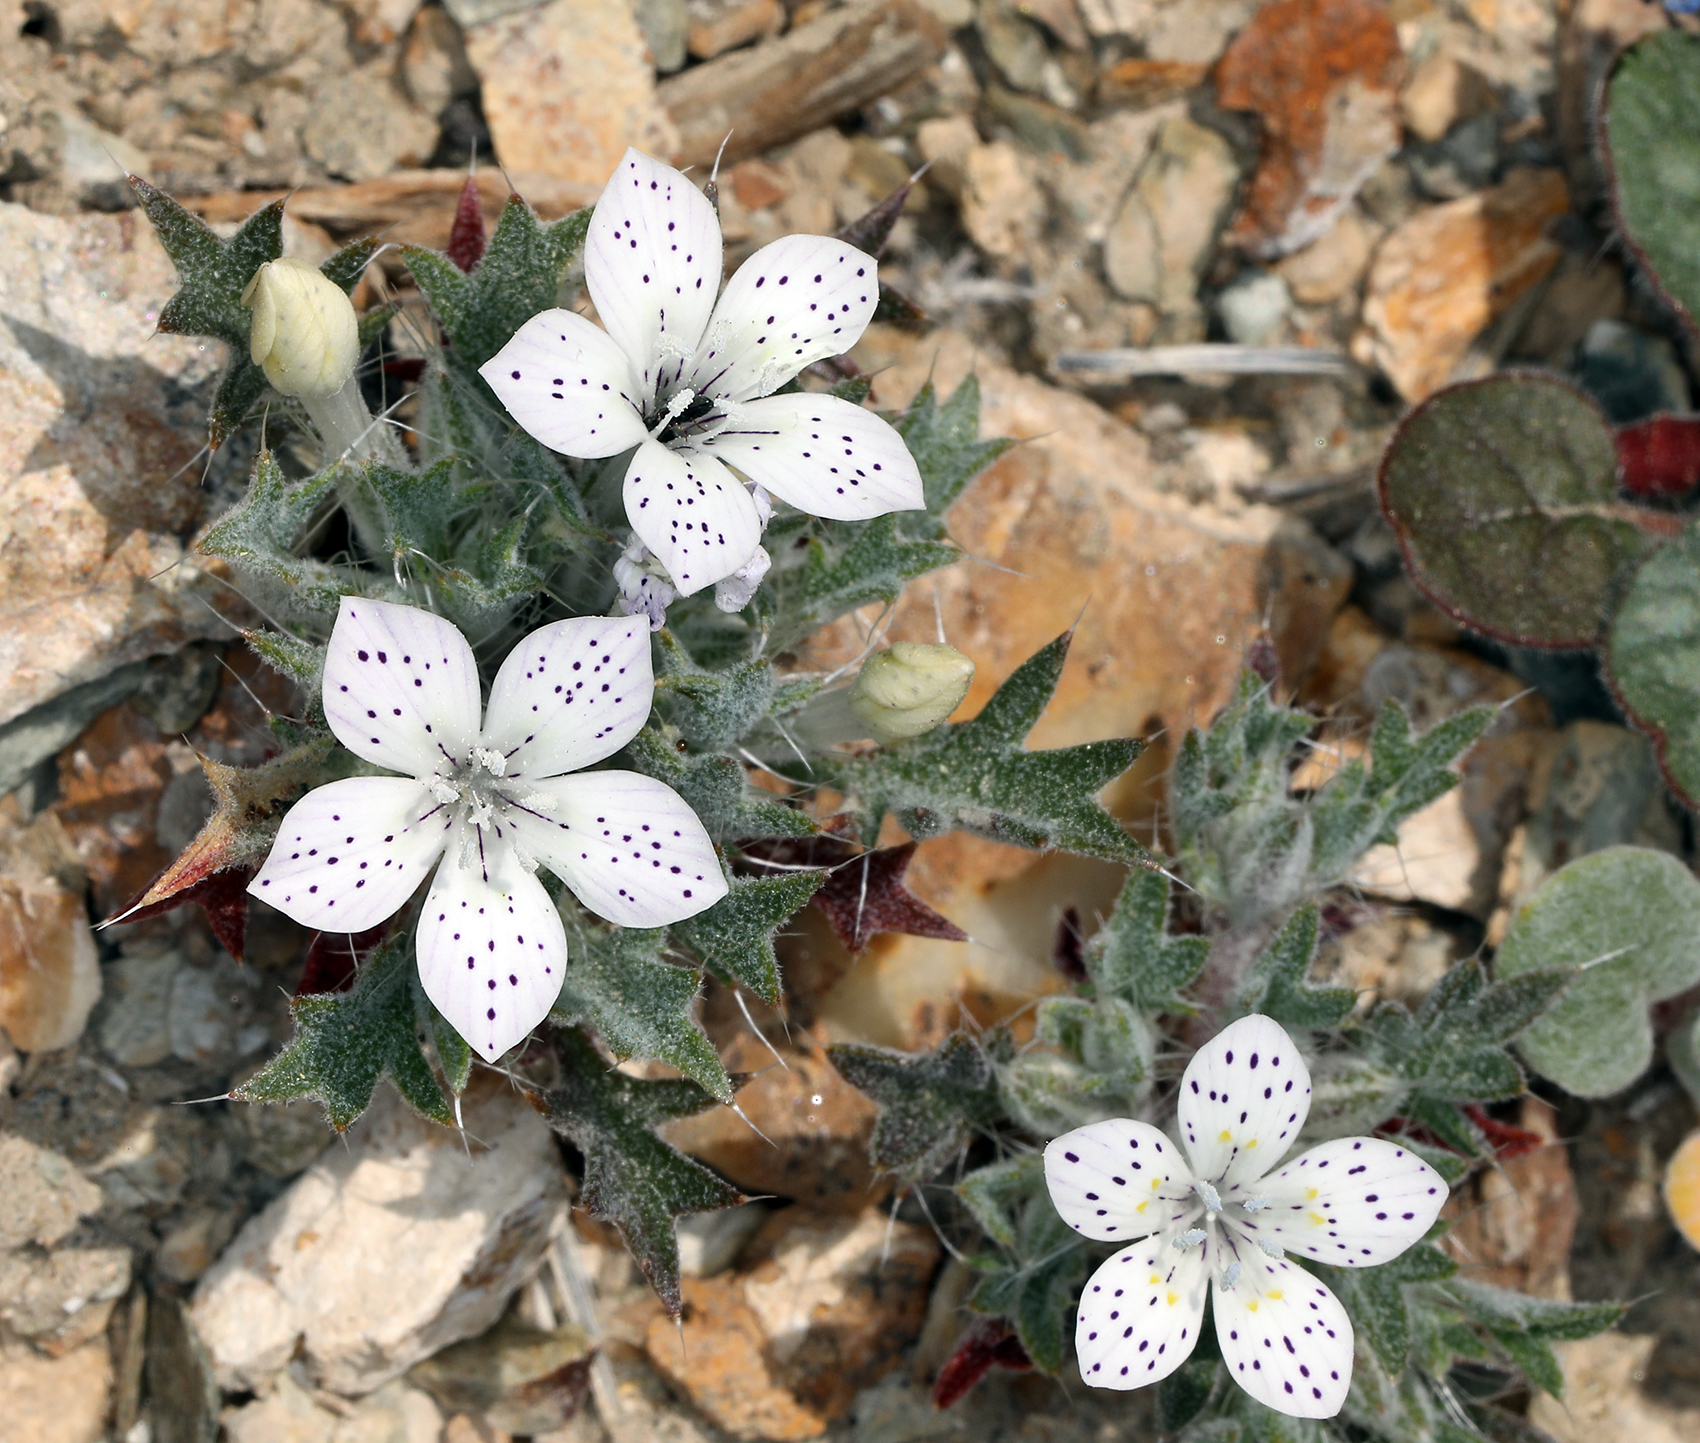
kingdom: Plantae
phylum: Tracheophyta
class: Magnoliopsida
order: Ericales
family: Polemoniaceae
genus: Langloisia
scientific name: Langloisia setosissima
